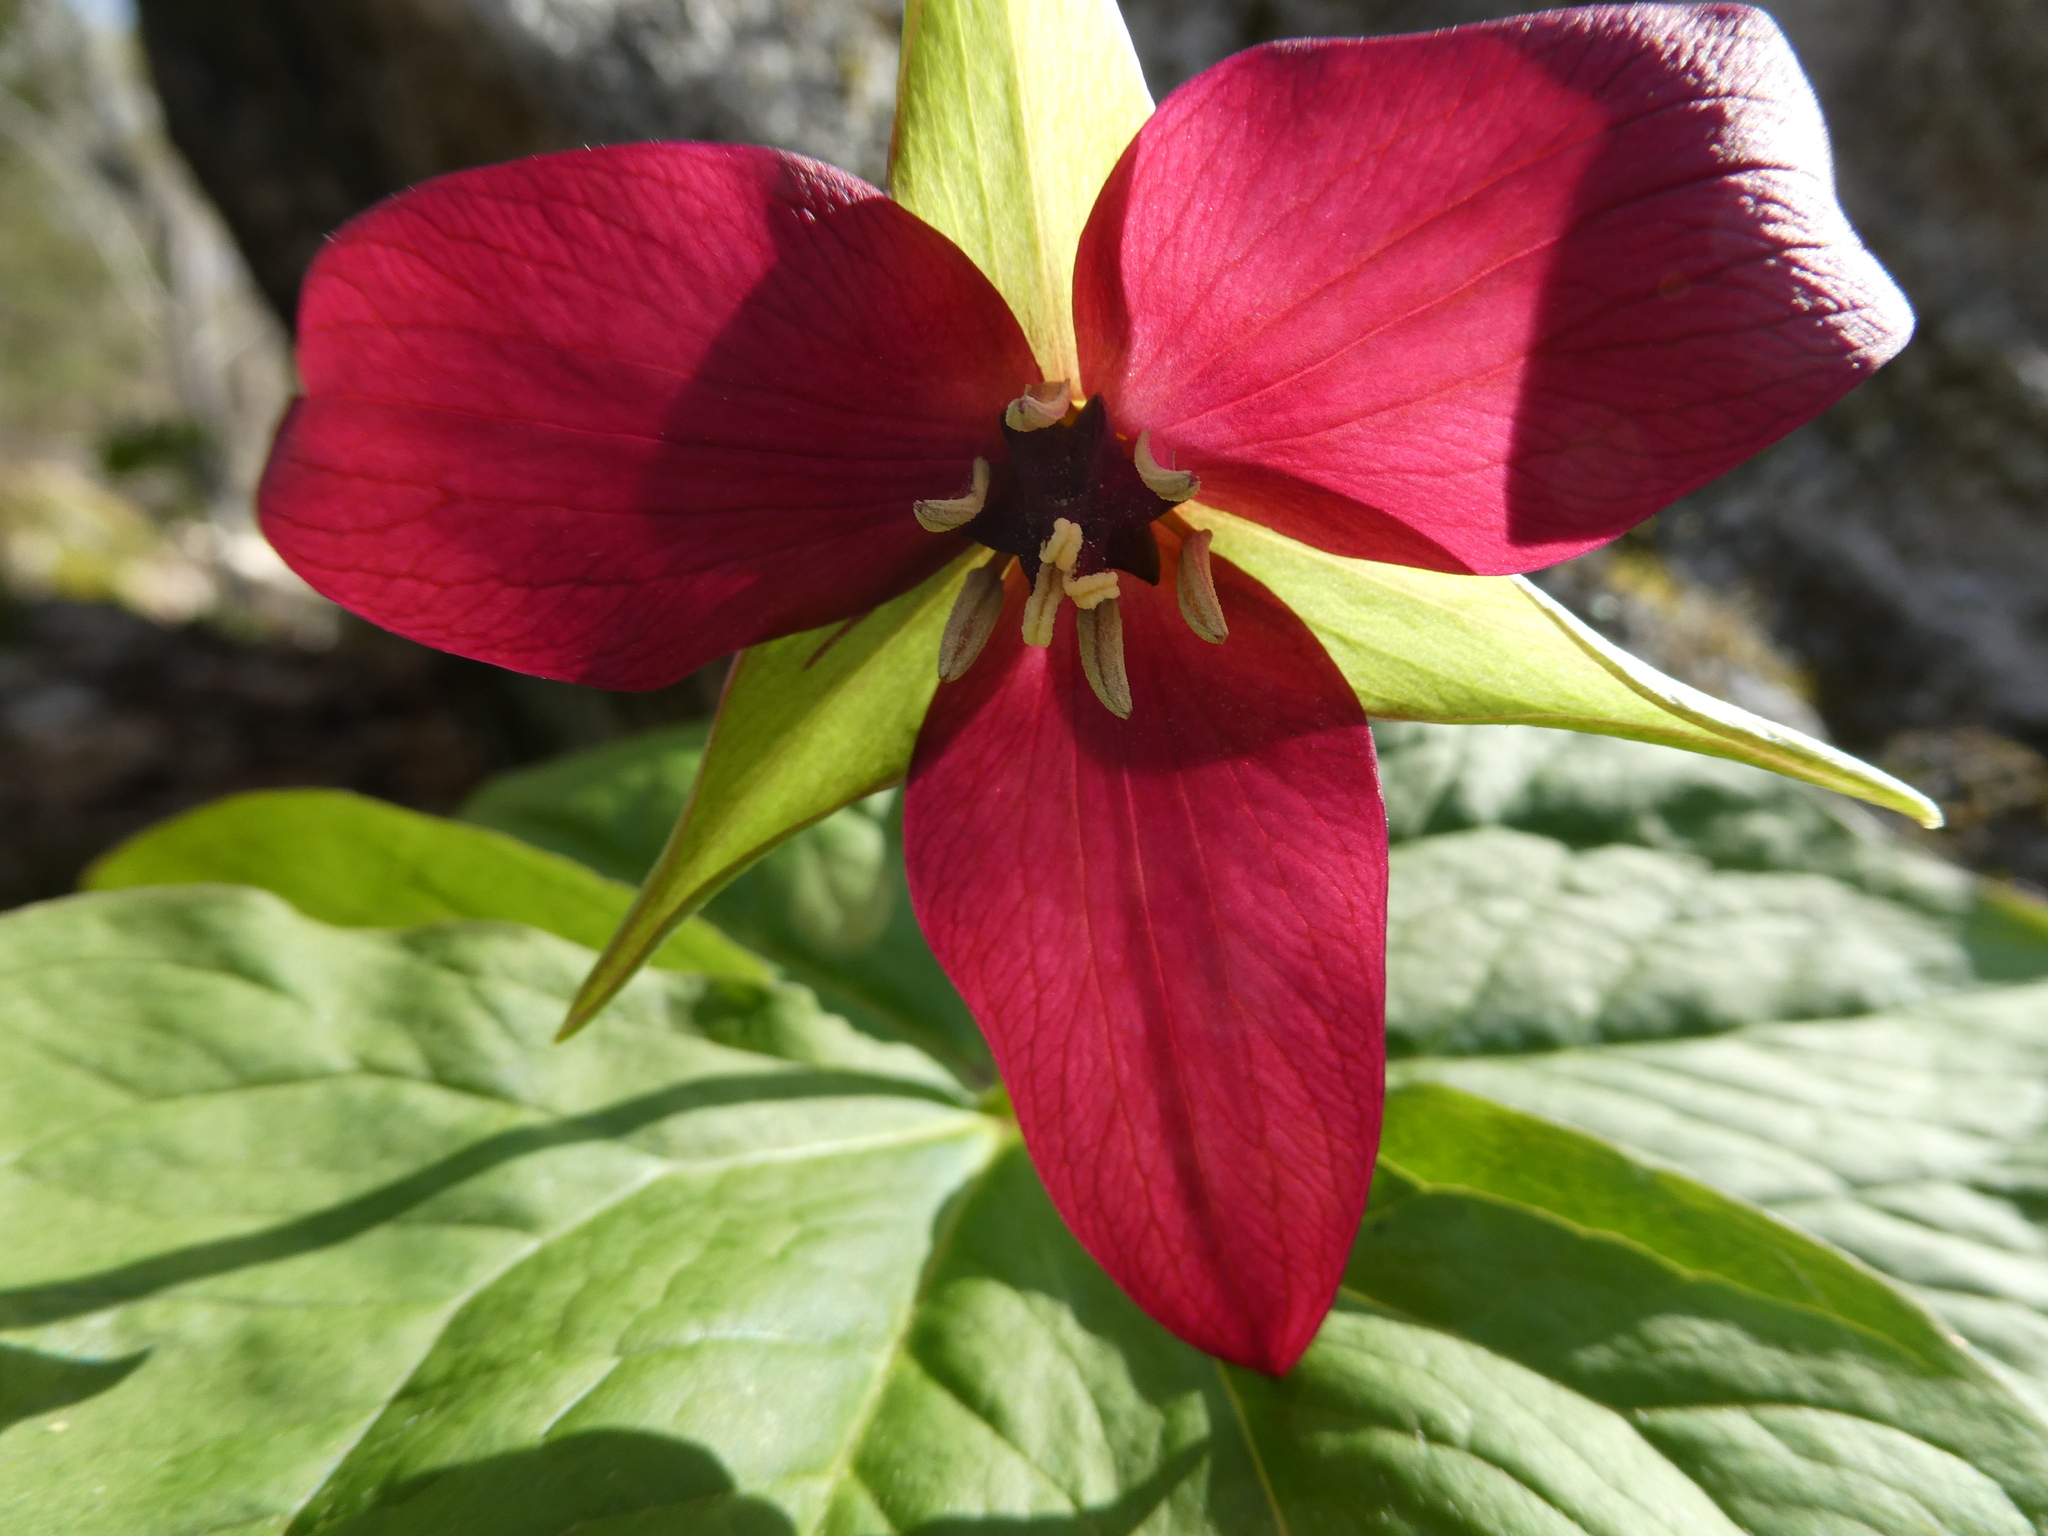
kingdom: Plantae
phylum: Tracheophyta
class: Liliopsida
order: Liliales
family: Melanthiaceae
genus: Trillium
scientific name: Trillium erectum
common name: Purple trillium
